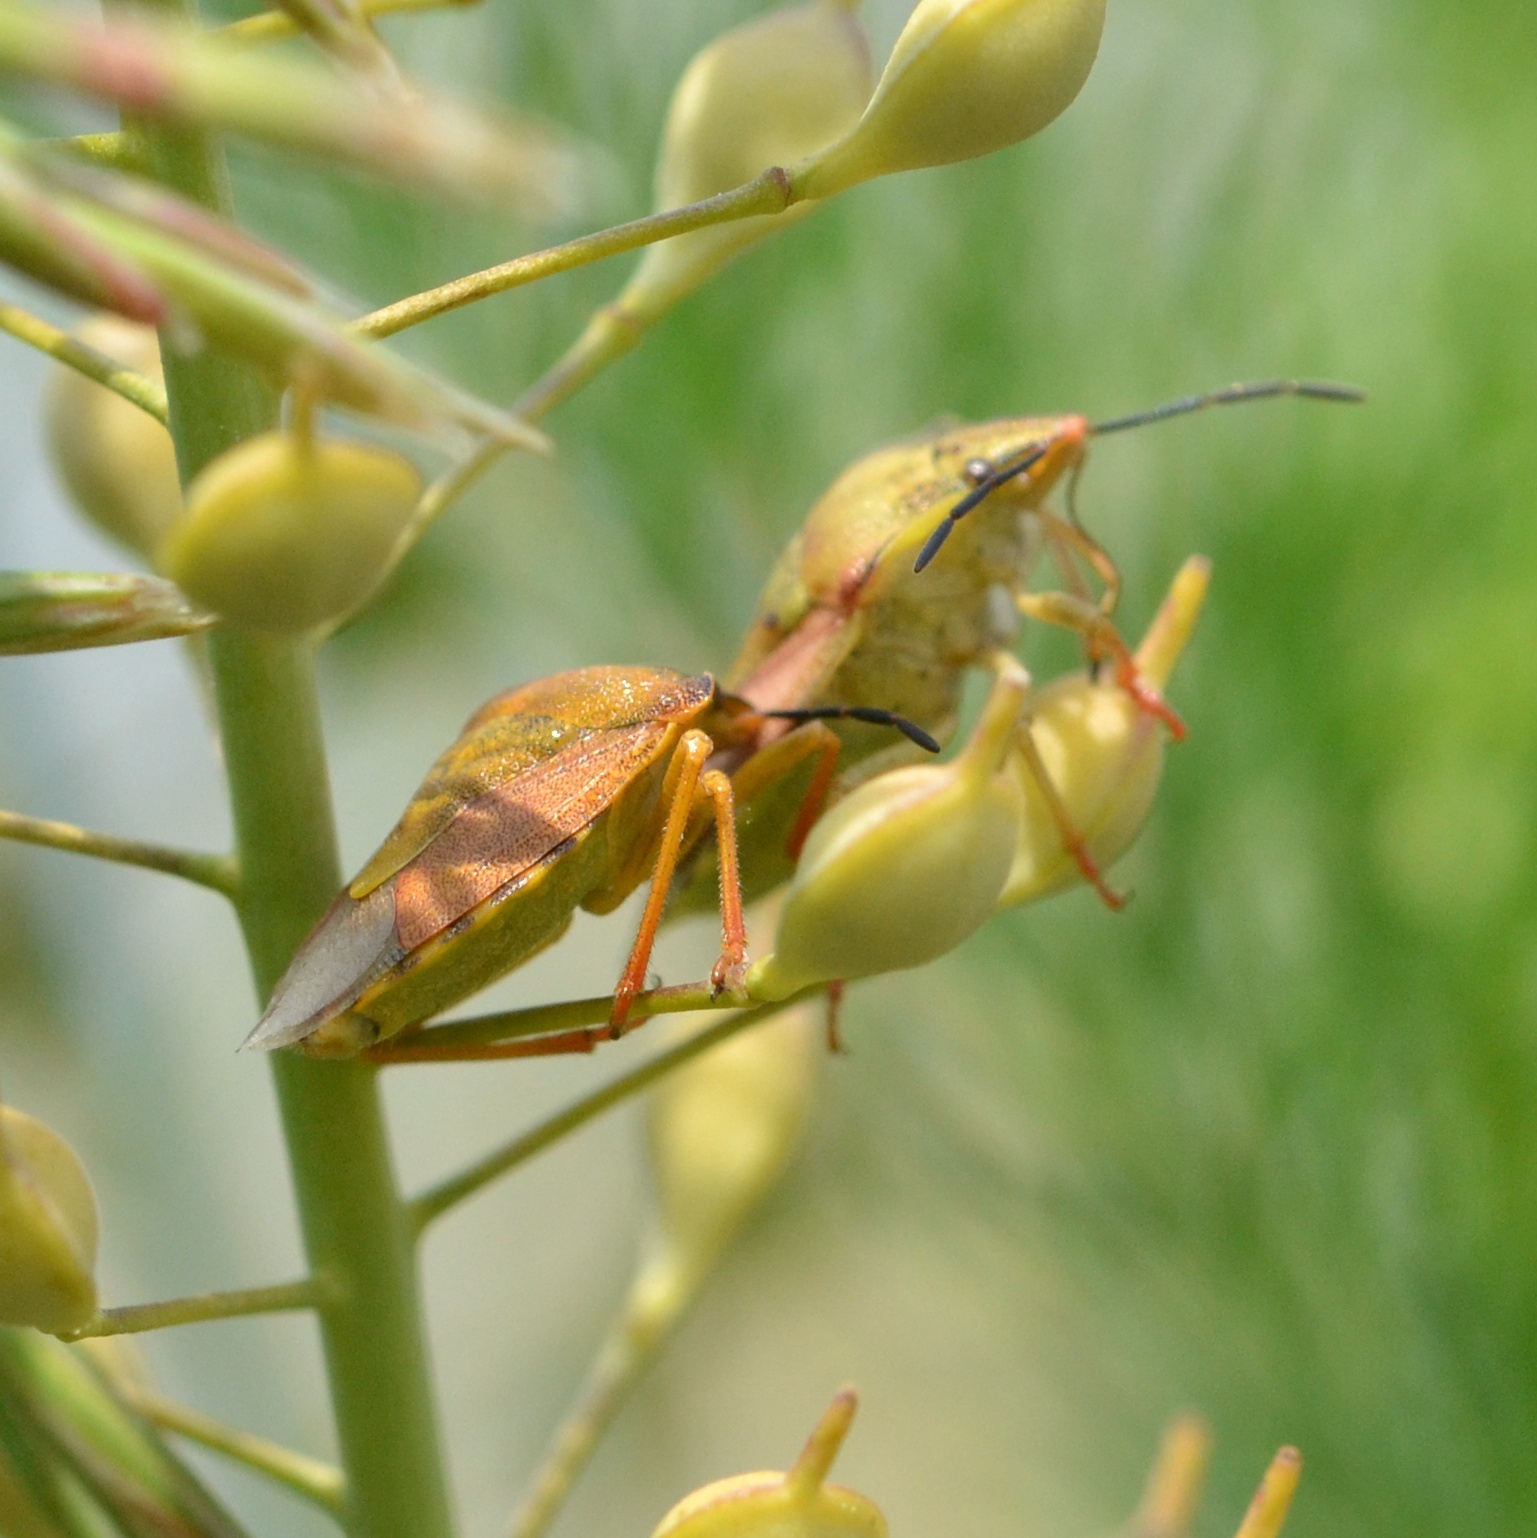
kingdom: Animalia
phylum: Arthropoda
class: Insecta
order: Hemiptera
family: Pentatomidae
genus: Carpocoris
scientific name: Carpocoris purpureipennis
